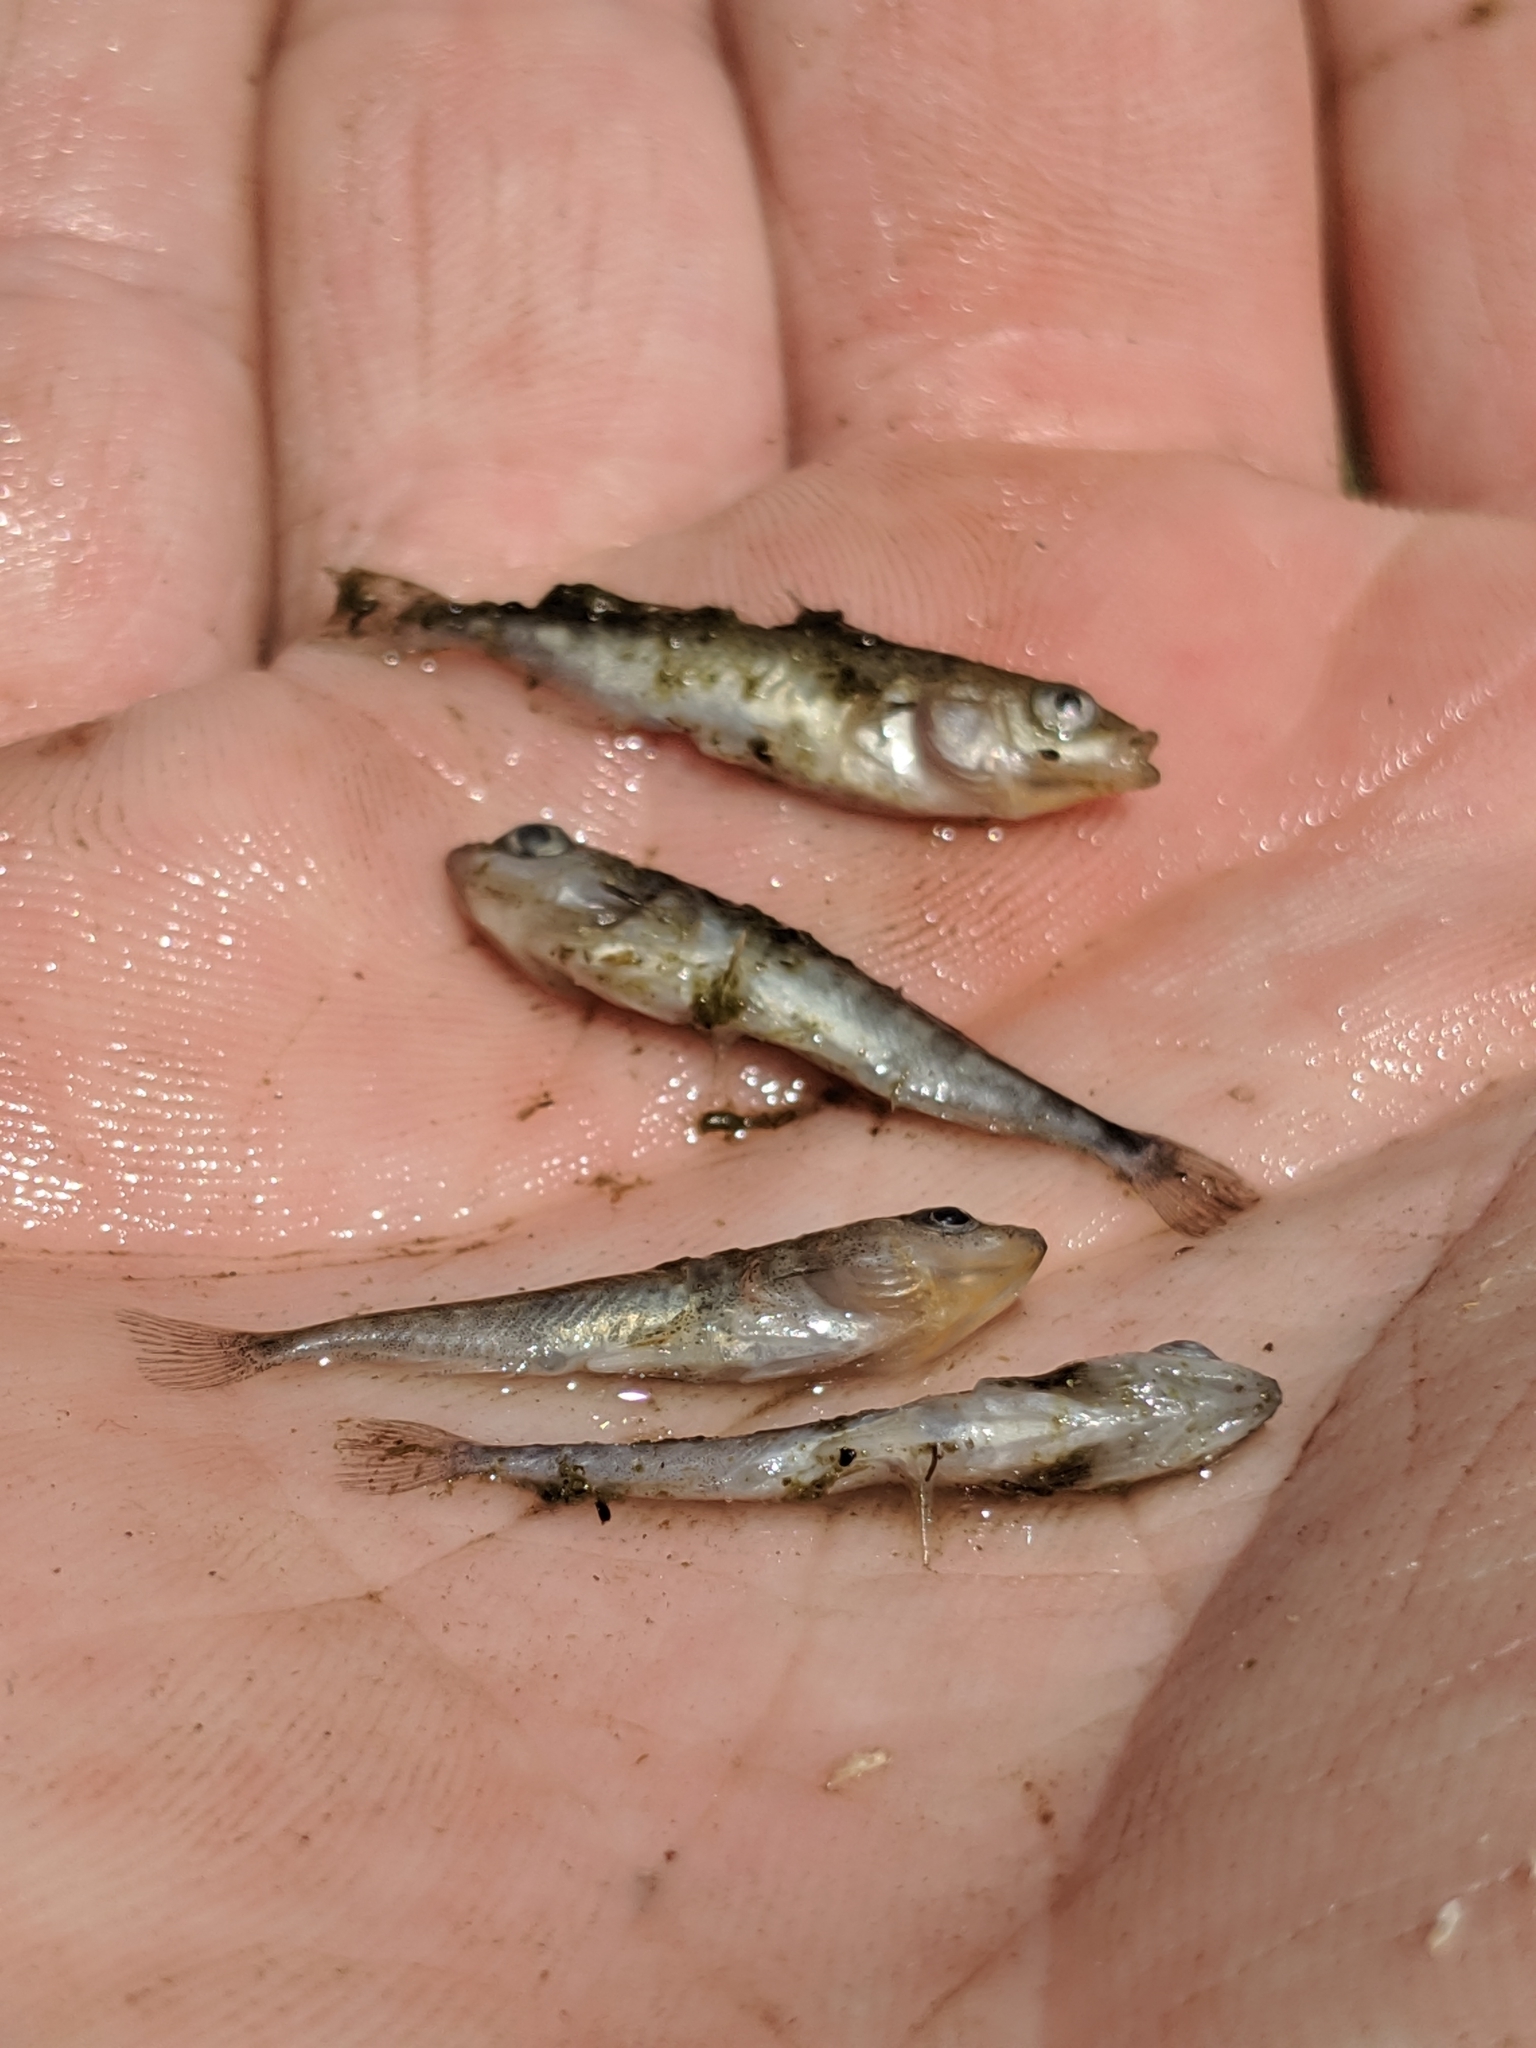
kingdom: Animalia
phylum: Chordata
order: Gasterosteiformes
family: Gasterosteidae
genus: Gasterosteus
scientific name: Gasterosteus aculeatus
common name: Three-spined stickleback
